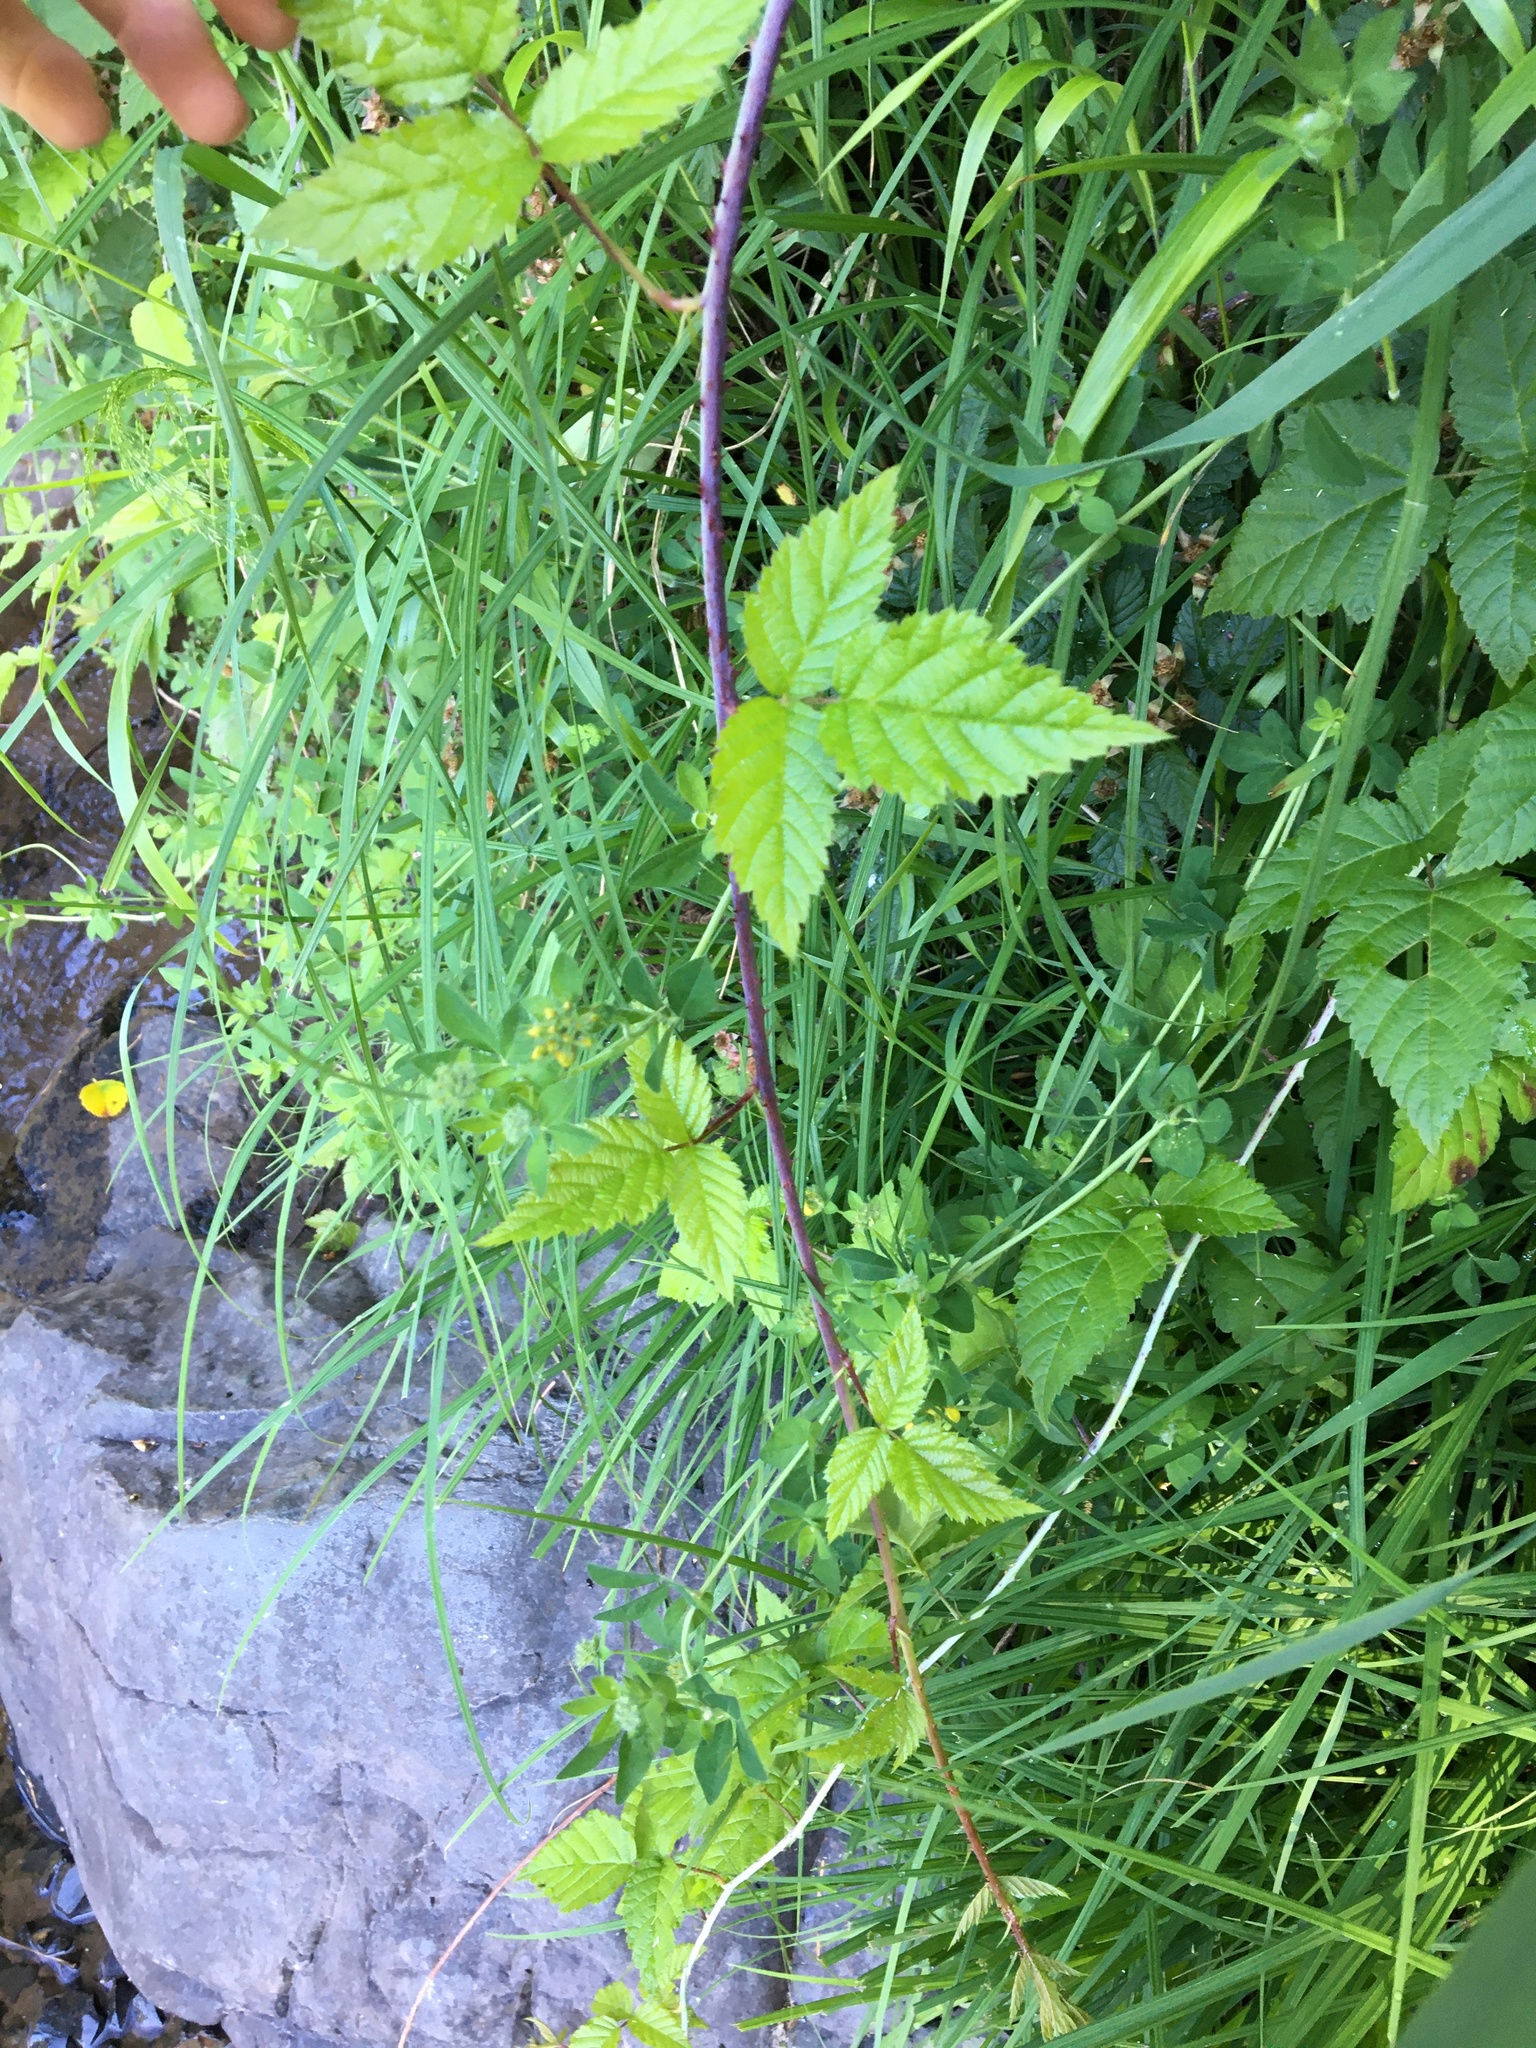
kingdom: Plantae
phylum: Tracheophyta
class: Magnoliopsida
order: Rosales
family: Rosaceae
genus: Rubus
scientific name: Rubus ursinus
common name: Pacific blackberry
